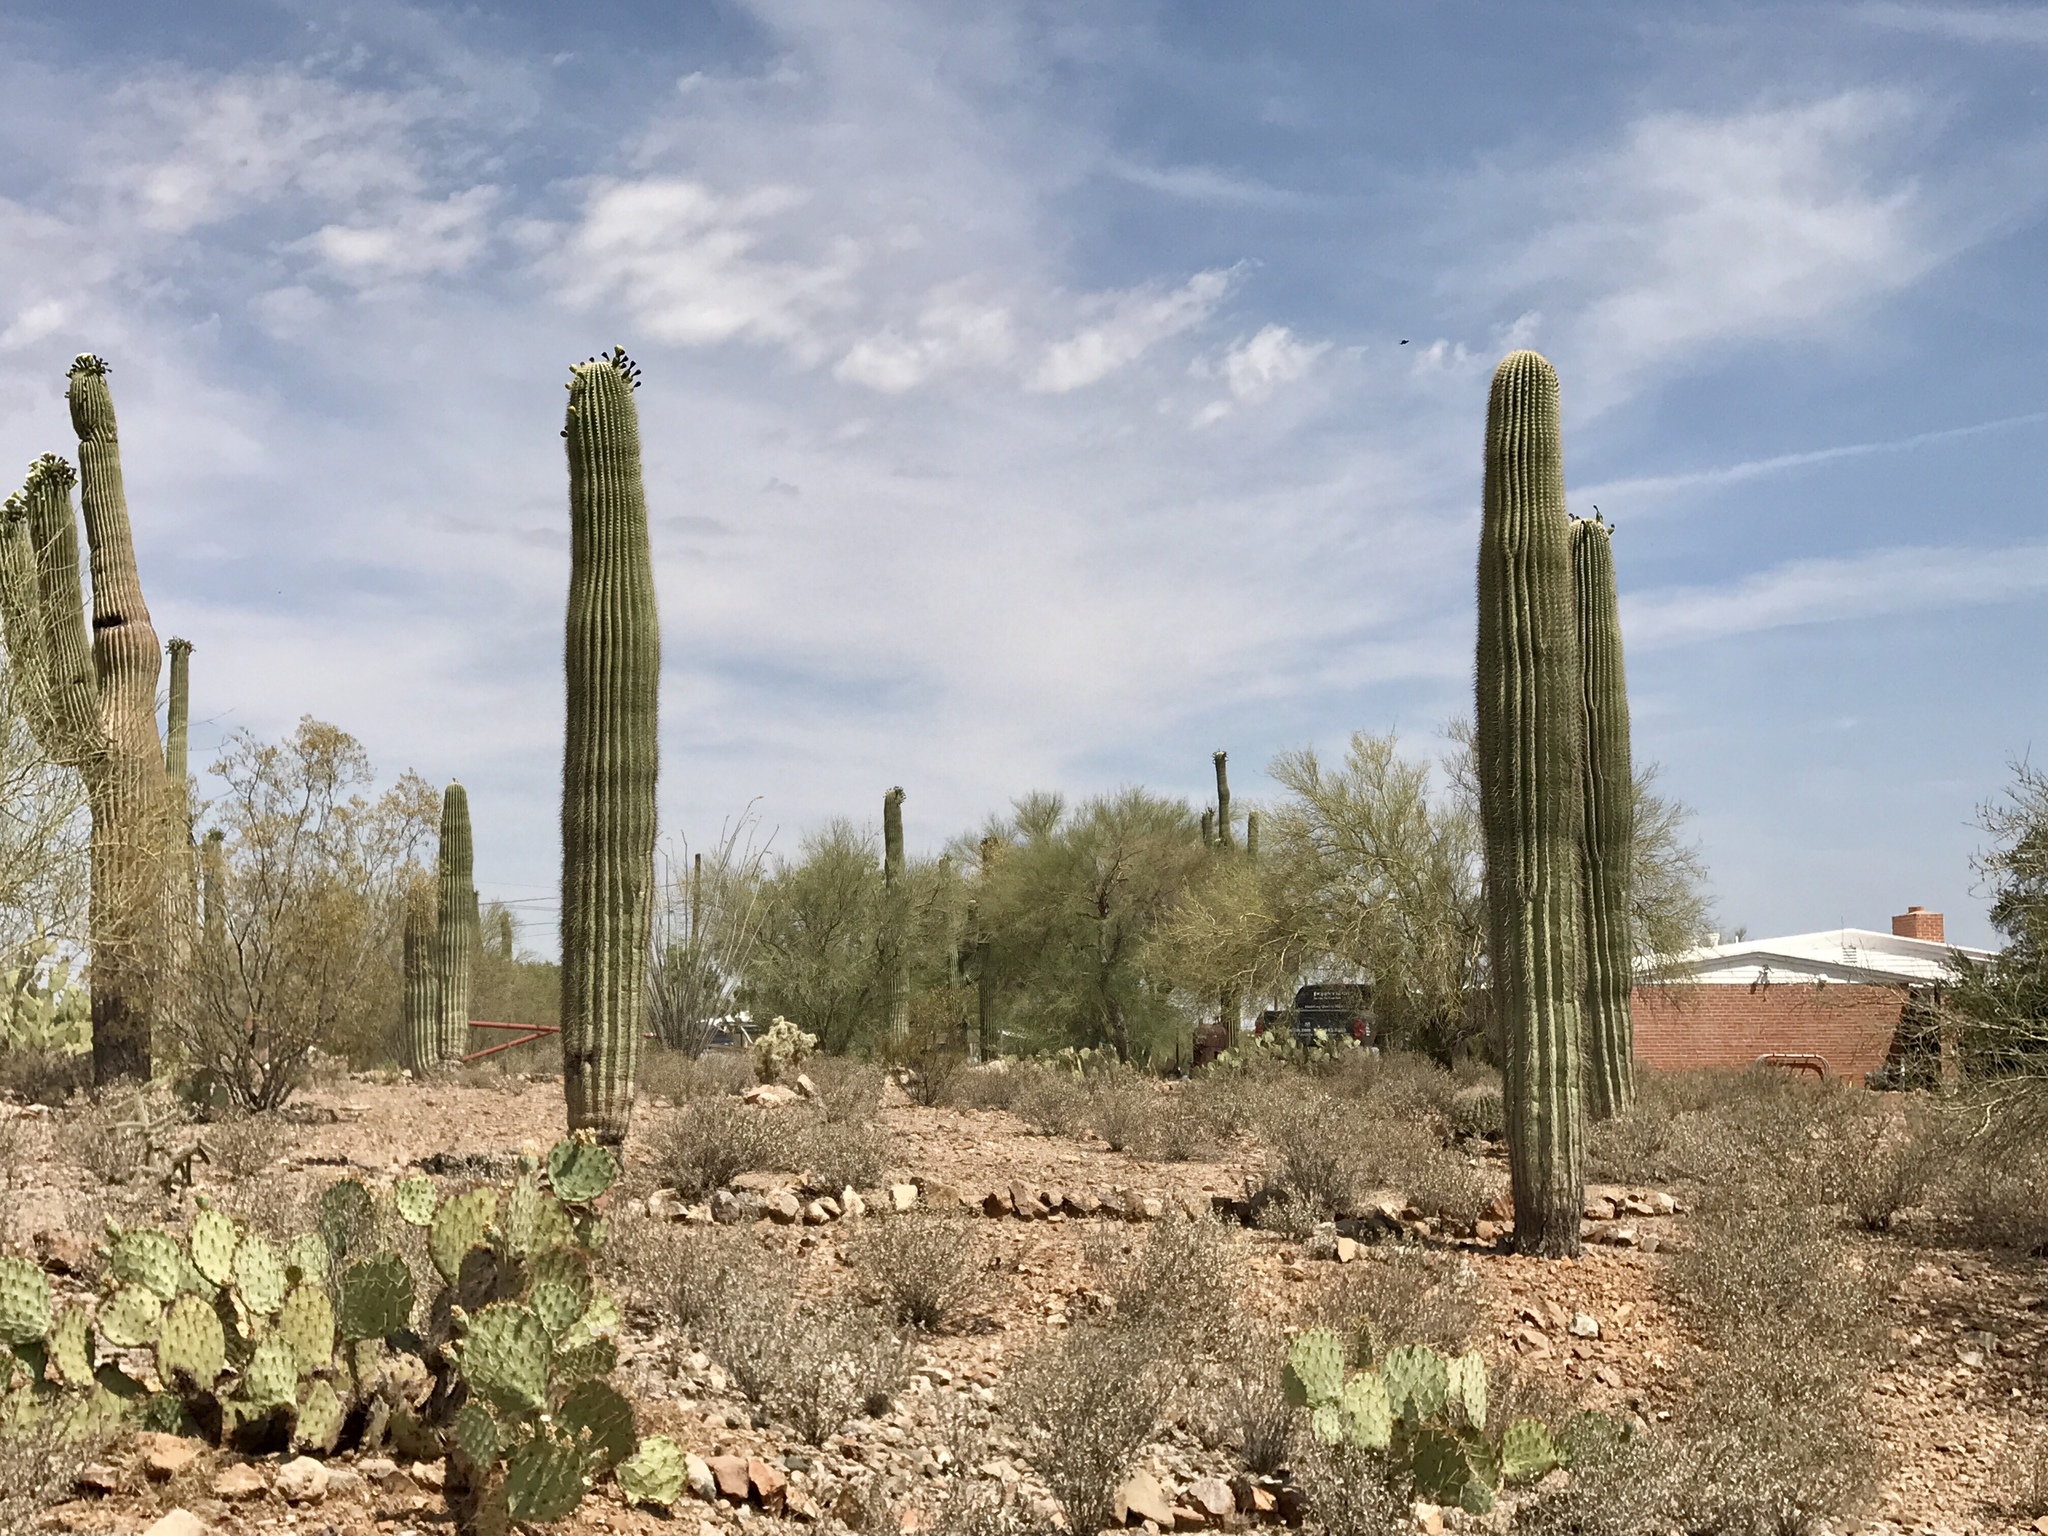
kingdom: Plantae
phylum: Tracheophyta
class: Magnoliopsida
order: Caryophyllales
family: Cactaceae
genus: Carnegiea
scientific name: Carnegiea gigantea
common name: Saguaro
